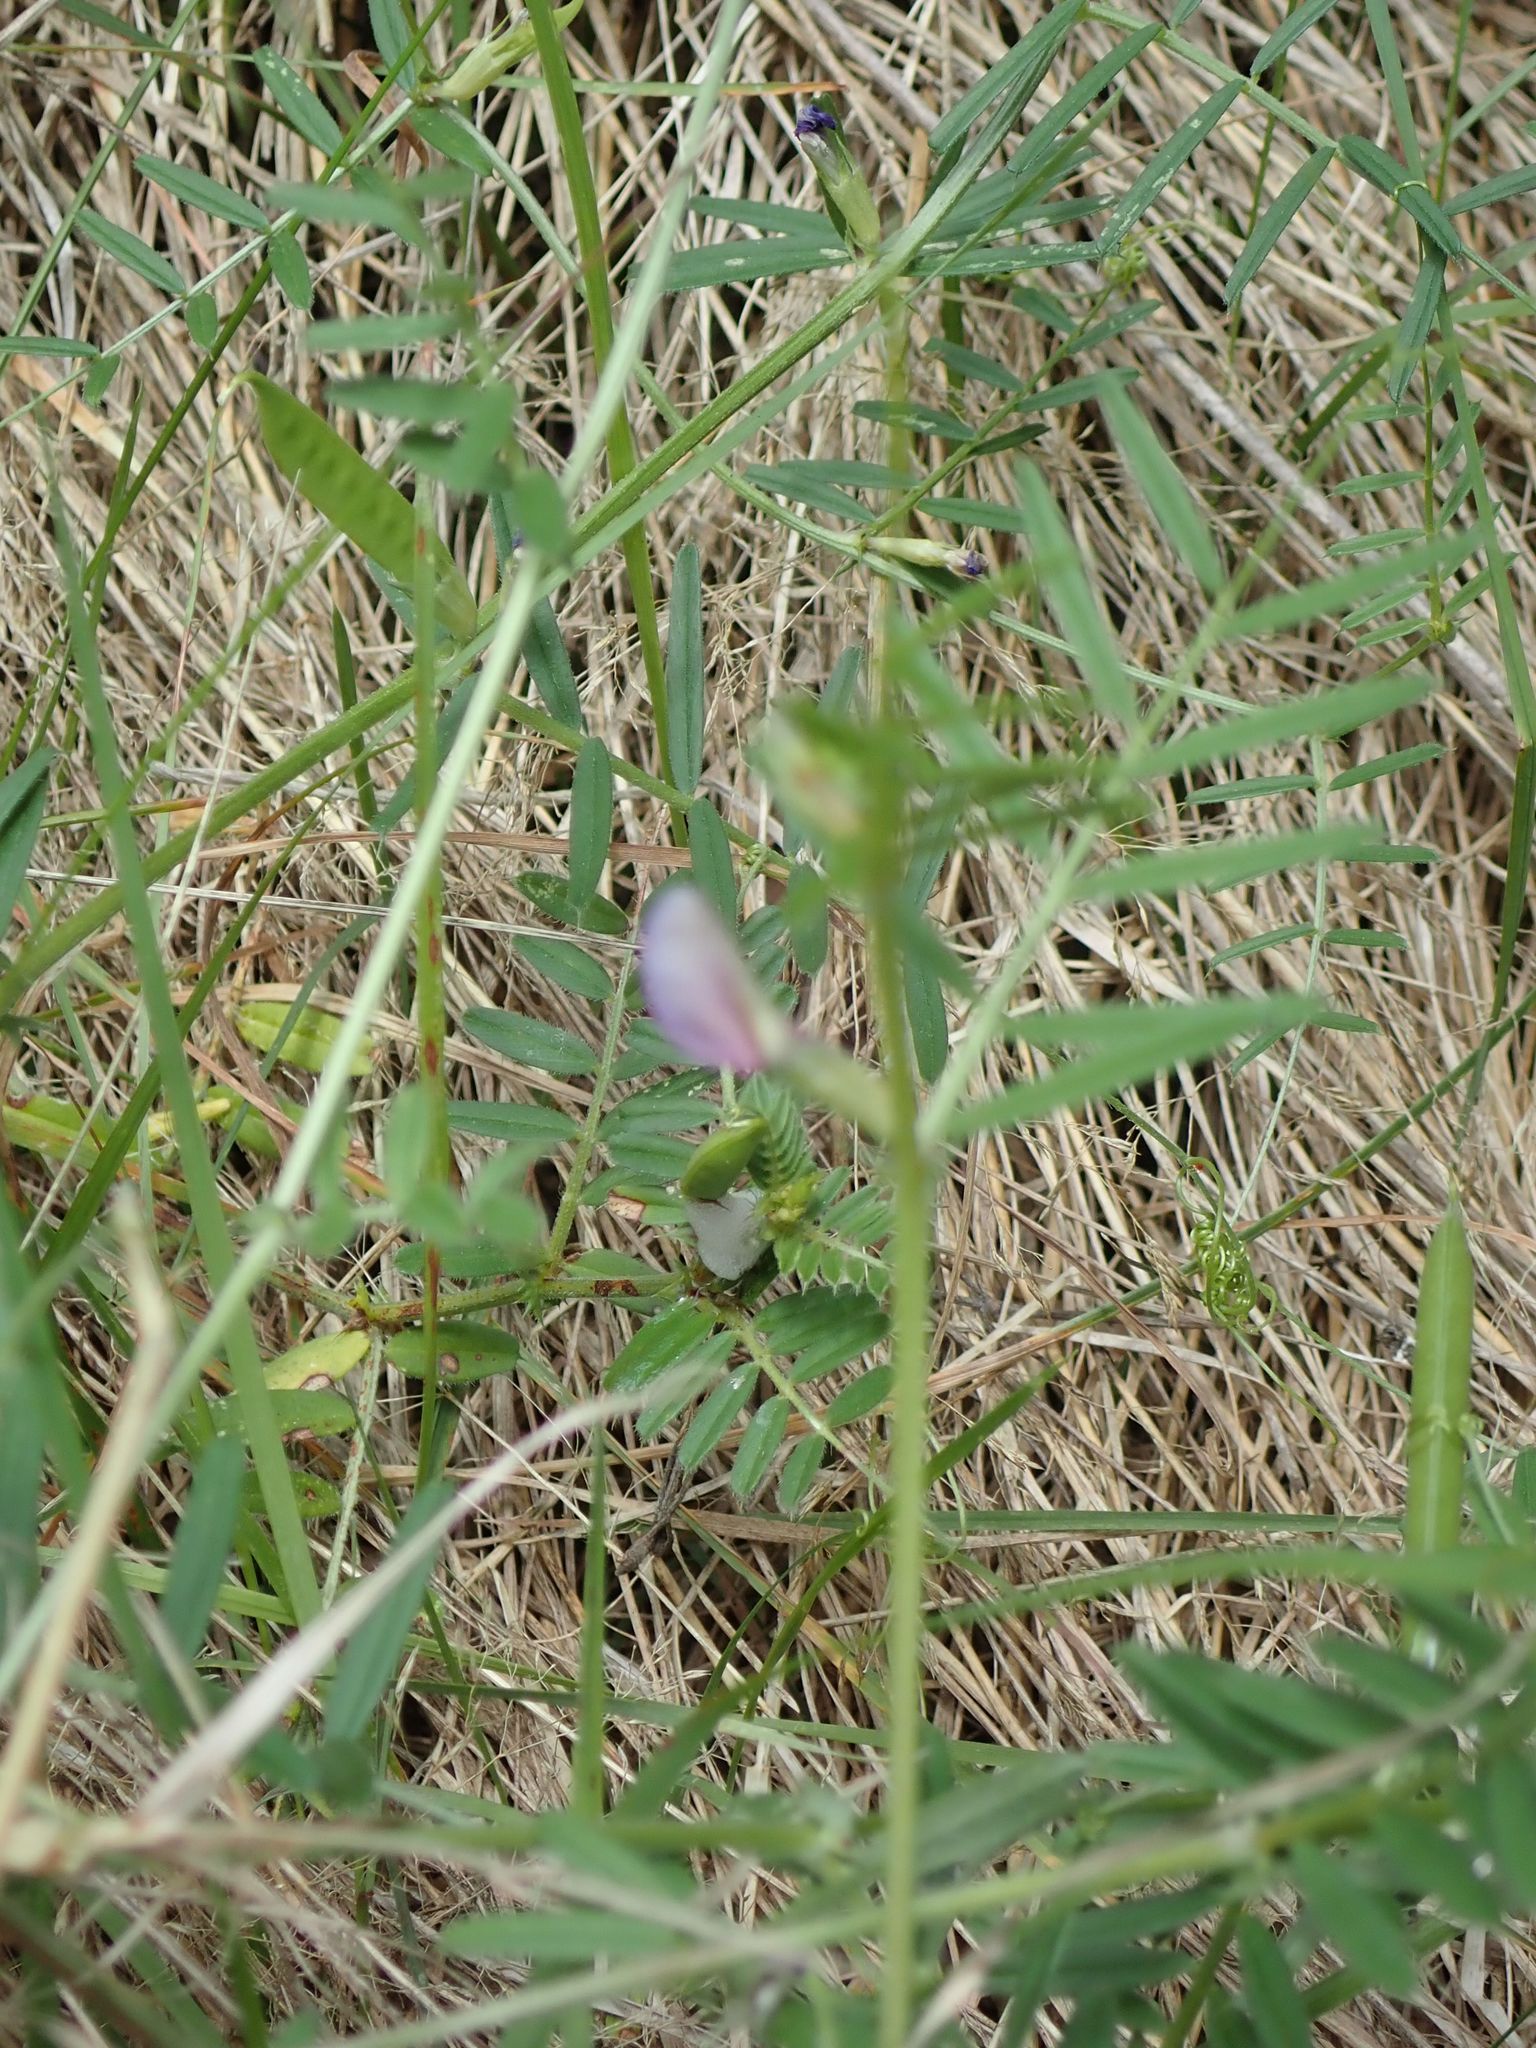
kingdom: Plantae
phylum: Tracheophyta
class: Magnoliopsida
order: Fabales
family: Fabaceae
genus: Vicia
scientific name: Vicia sativa
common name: Garden vetch
